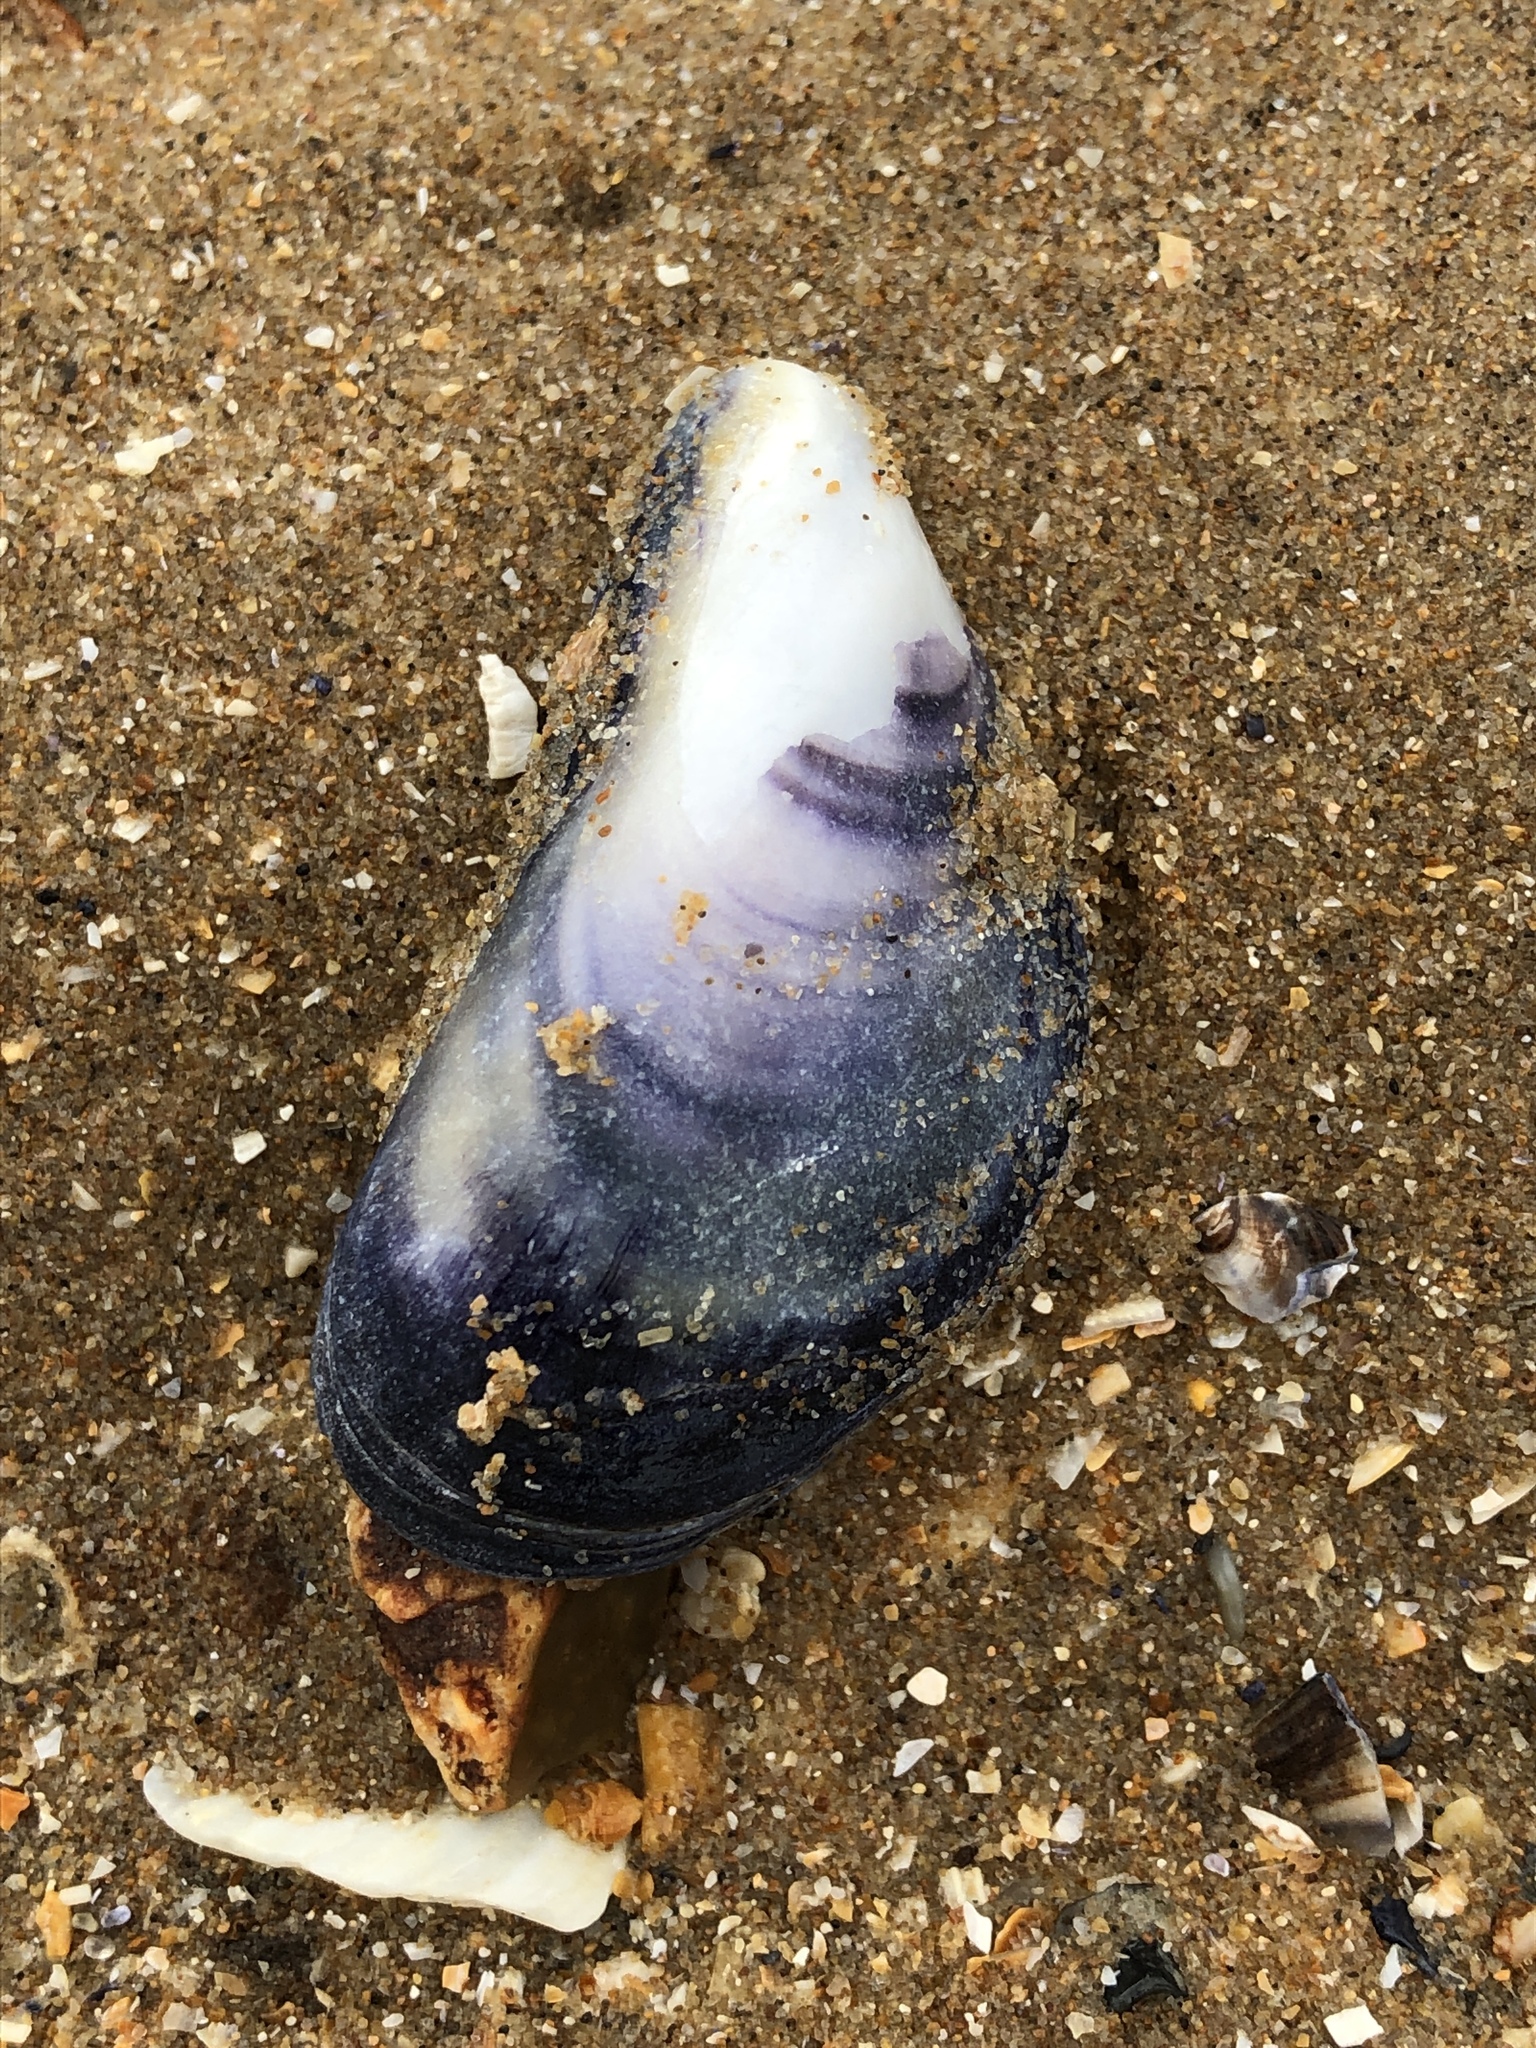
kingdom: Animalia
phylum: Mollusca
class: Bivalvia
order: Mytilida
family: Mytilidae
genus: Mytilus
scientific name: Mytilus edulis
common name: Blue mussel
